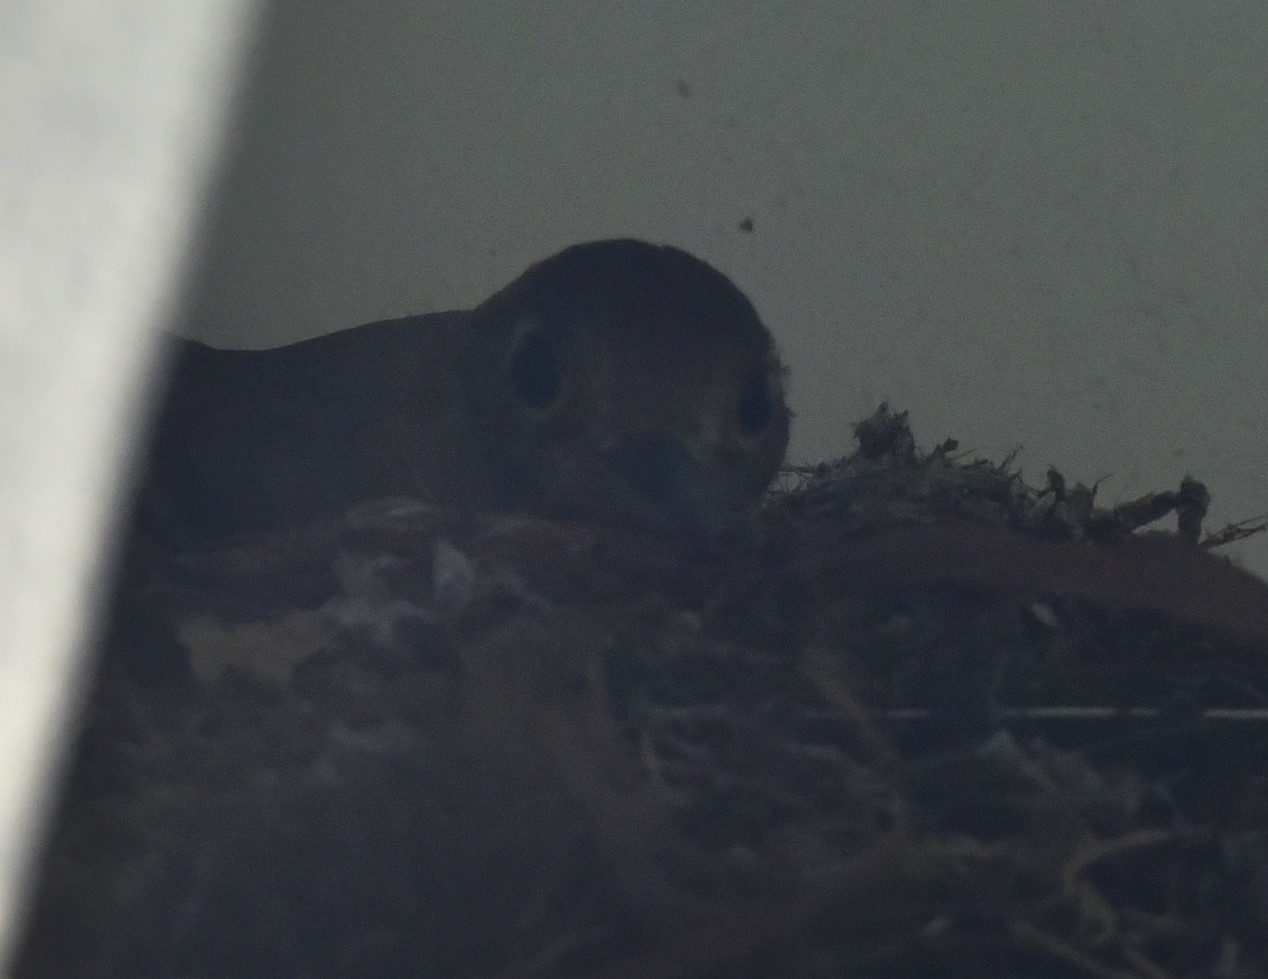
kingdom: Animalia
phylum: Chordata
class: Aves
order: Passeriformes
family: Tyrannidae
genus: Empidonax
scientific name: Empidonax difficilis
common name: Pacific-slope flycatcher
